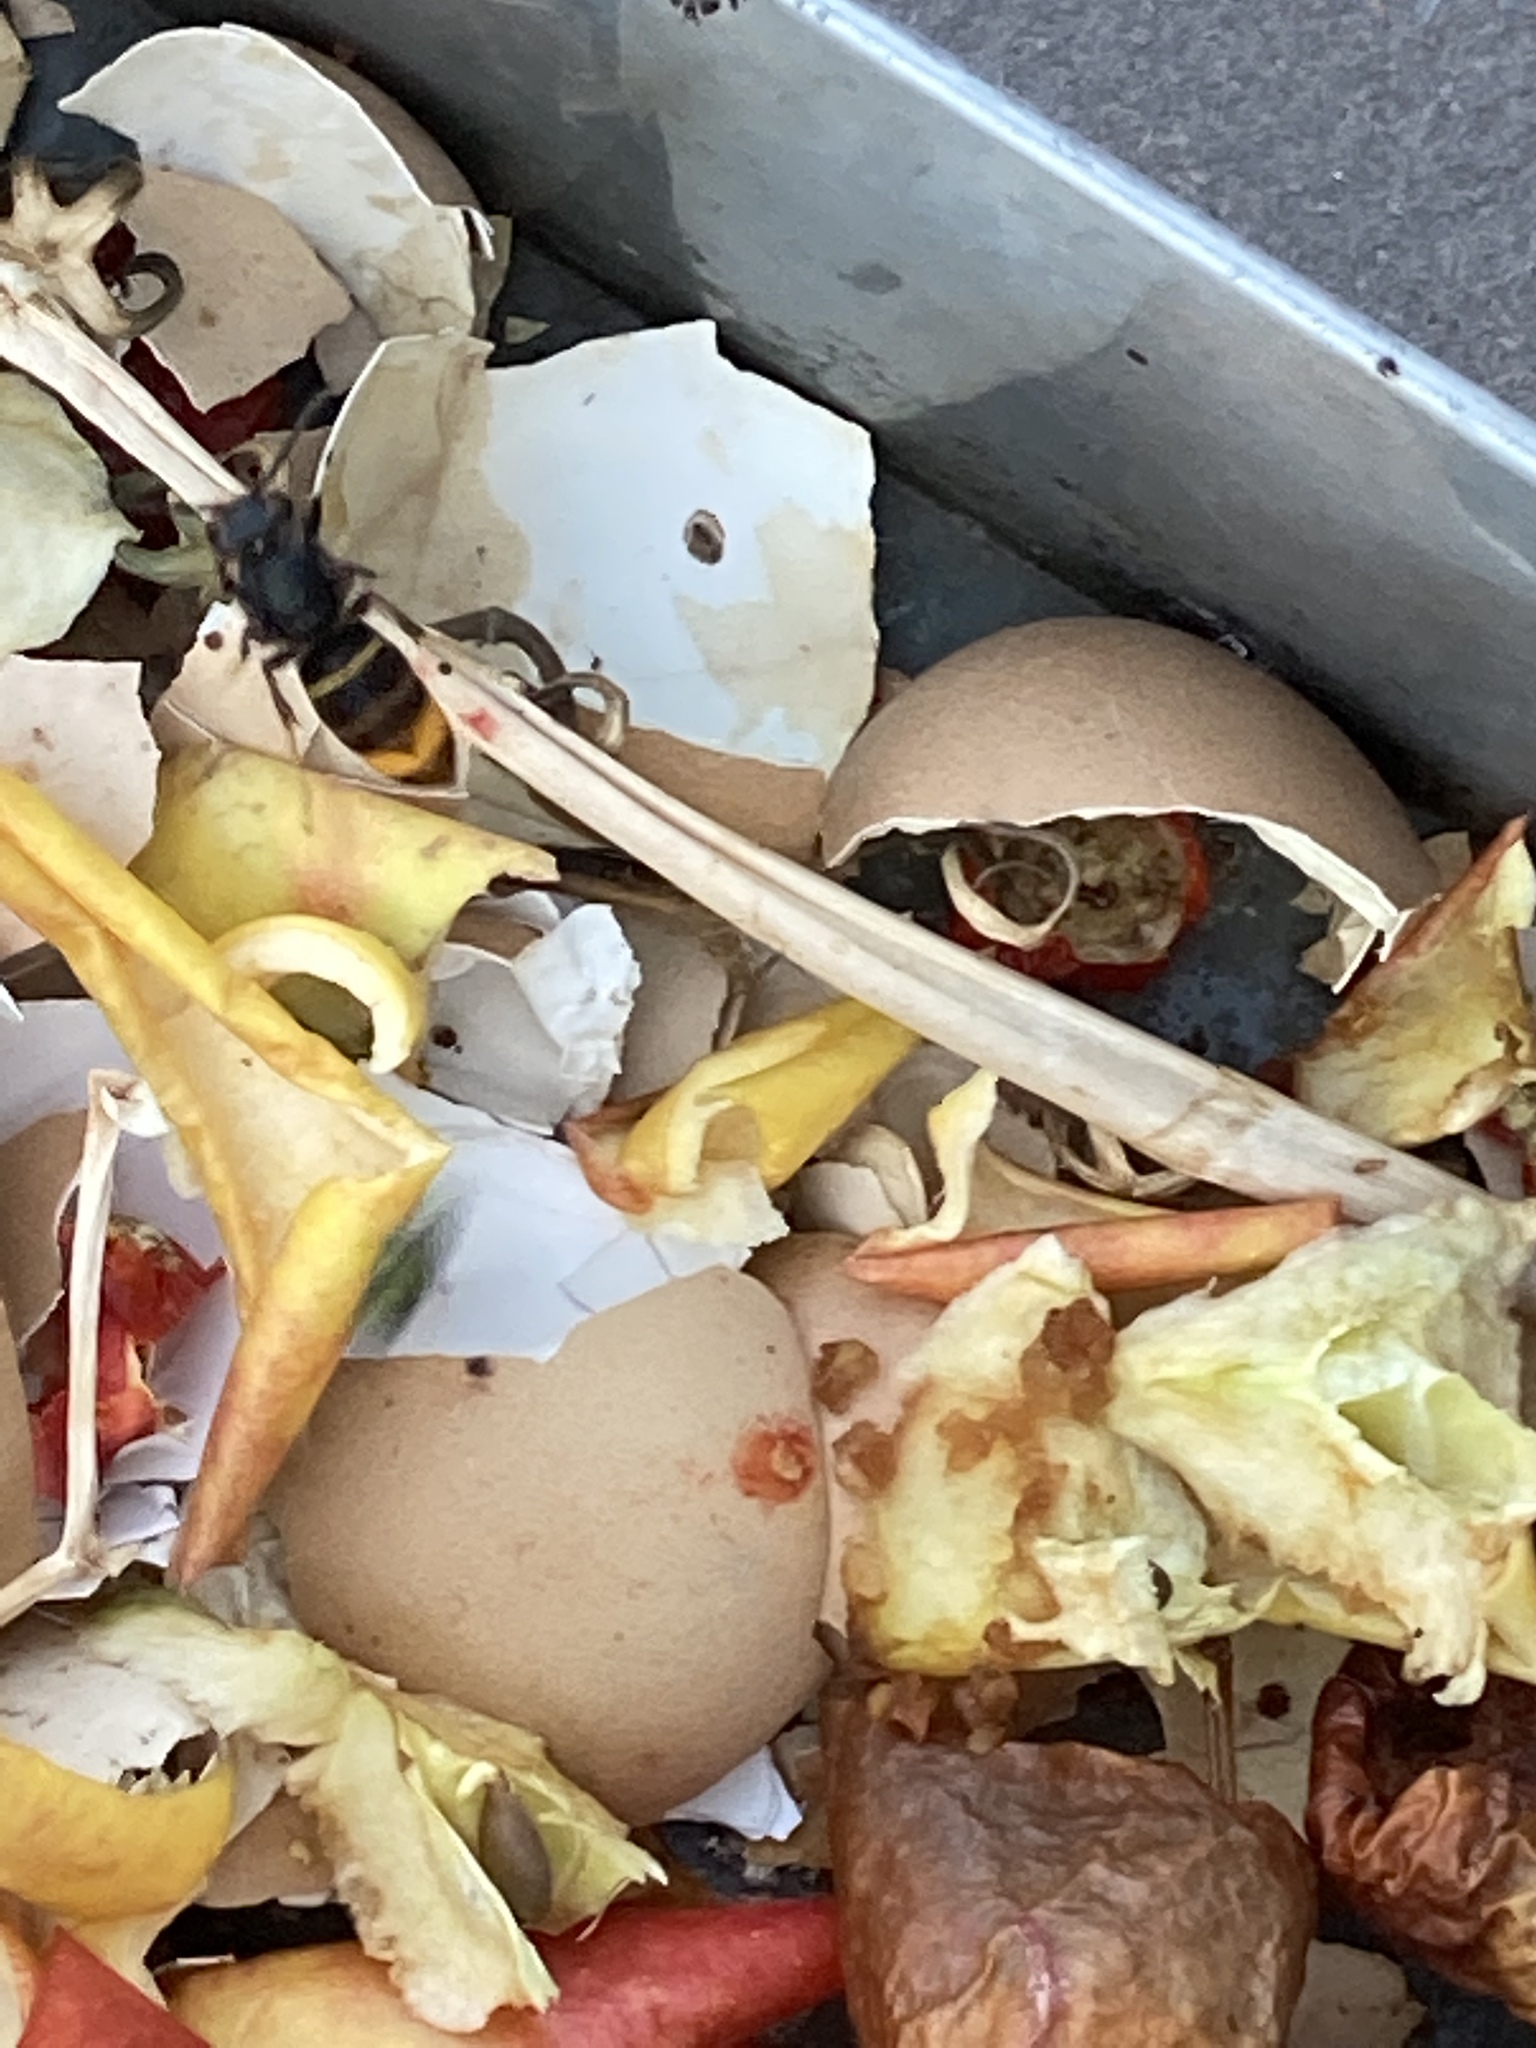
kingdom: Animalia
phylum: Arthropoda
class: Insecta
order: Hymenoptera
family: Vespidae
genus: Vespa
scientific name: Vespa velutina
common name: Asian hornet
